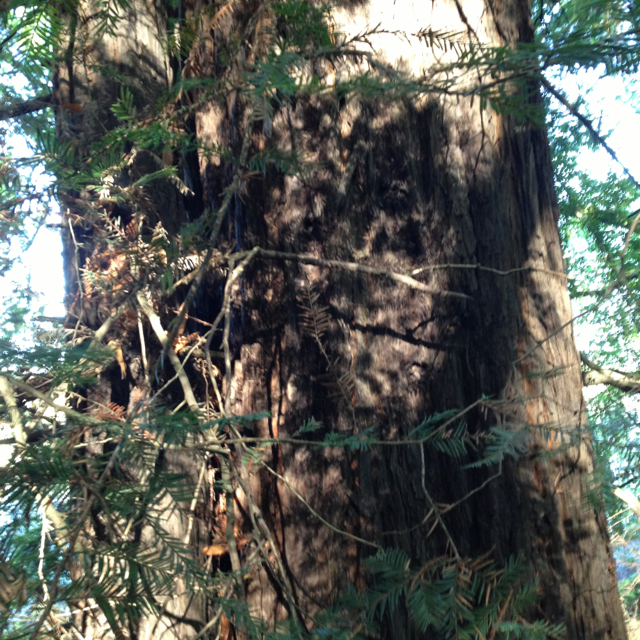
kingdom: Plantae
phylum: Tracheophyta
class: Pinopsida
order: Pinales
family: Cupressaceae
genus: Sequoia
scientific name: Sequoia sempervirens
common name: Coast redwood
